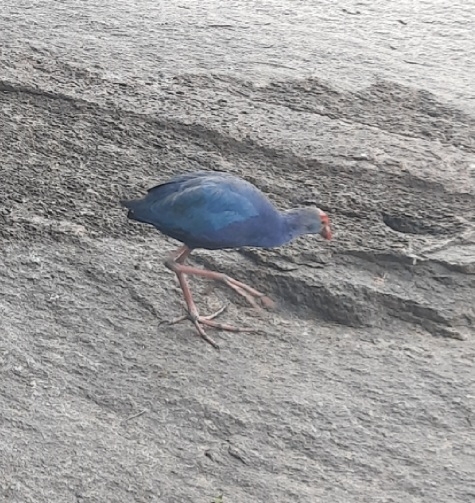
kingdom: Animalia
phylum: Chordata
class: Aves
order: Gruiformes
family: Rallidae
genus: Porphyrio
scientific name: Porphyrio porphyrio
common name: Purple swamphen
